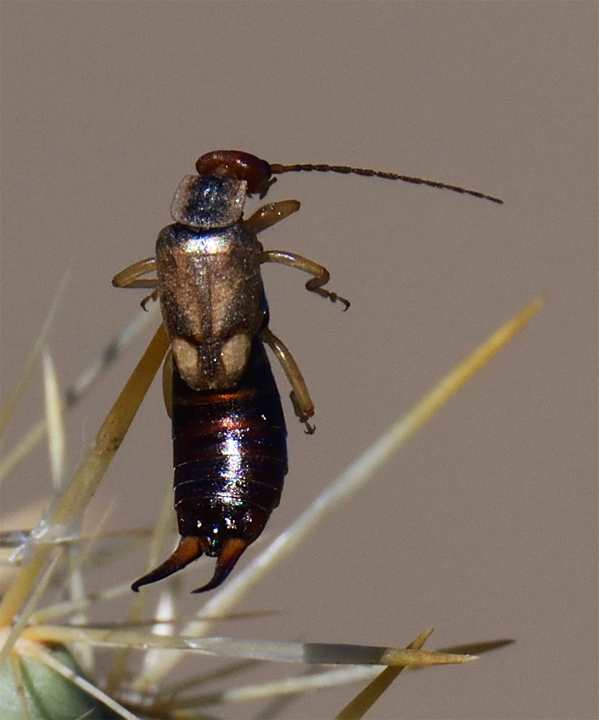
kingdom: Animalia
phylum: Arthropoda
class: Insecta
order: Dermaptera
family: Forficulidae
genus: Forficula
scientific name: Forficula dentata
